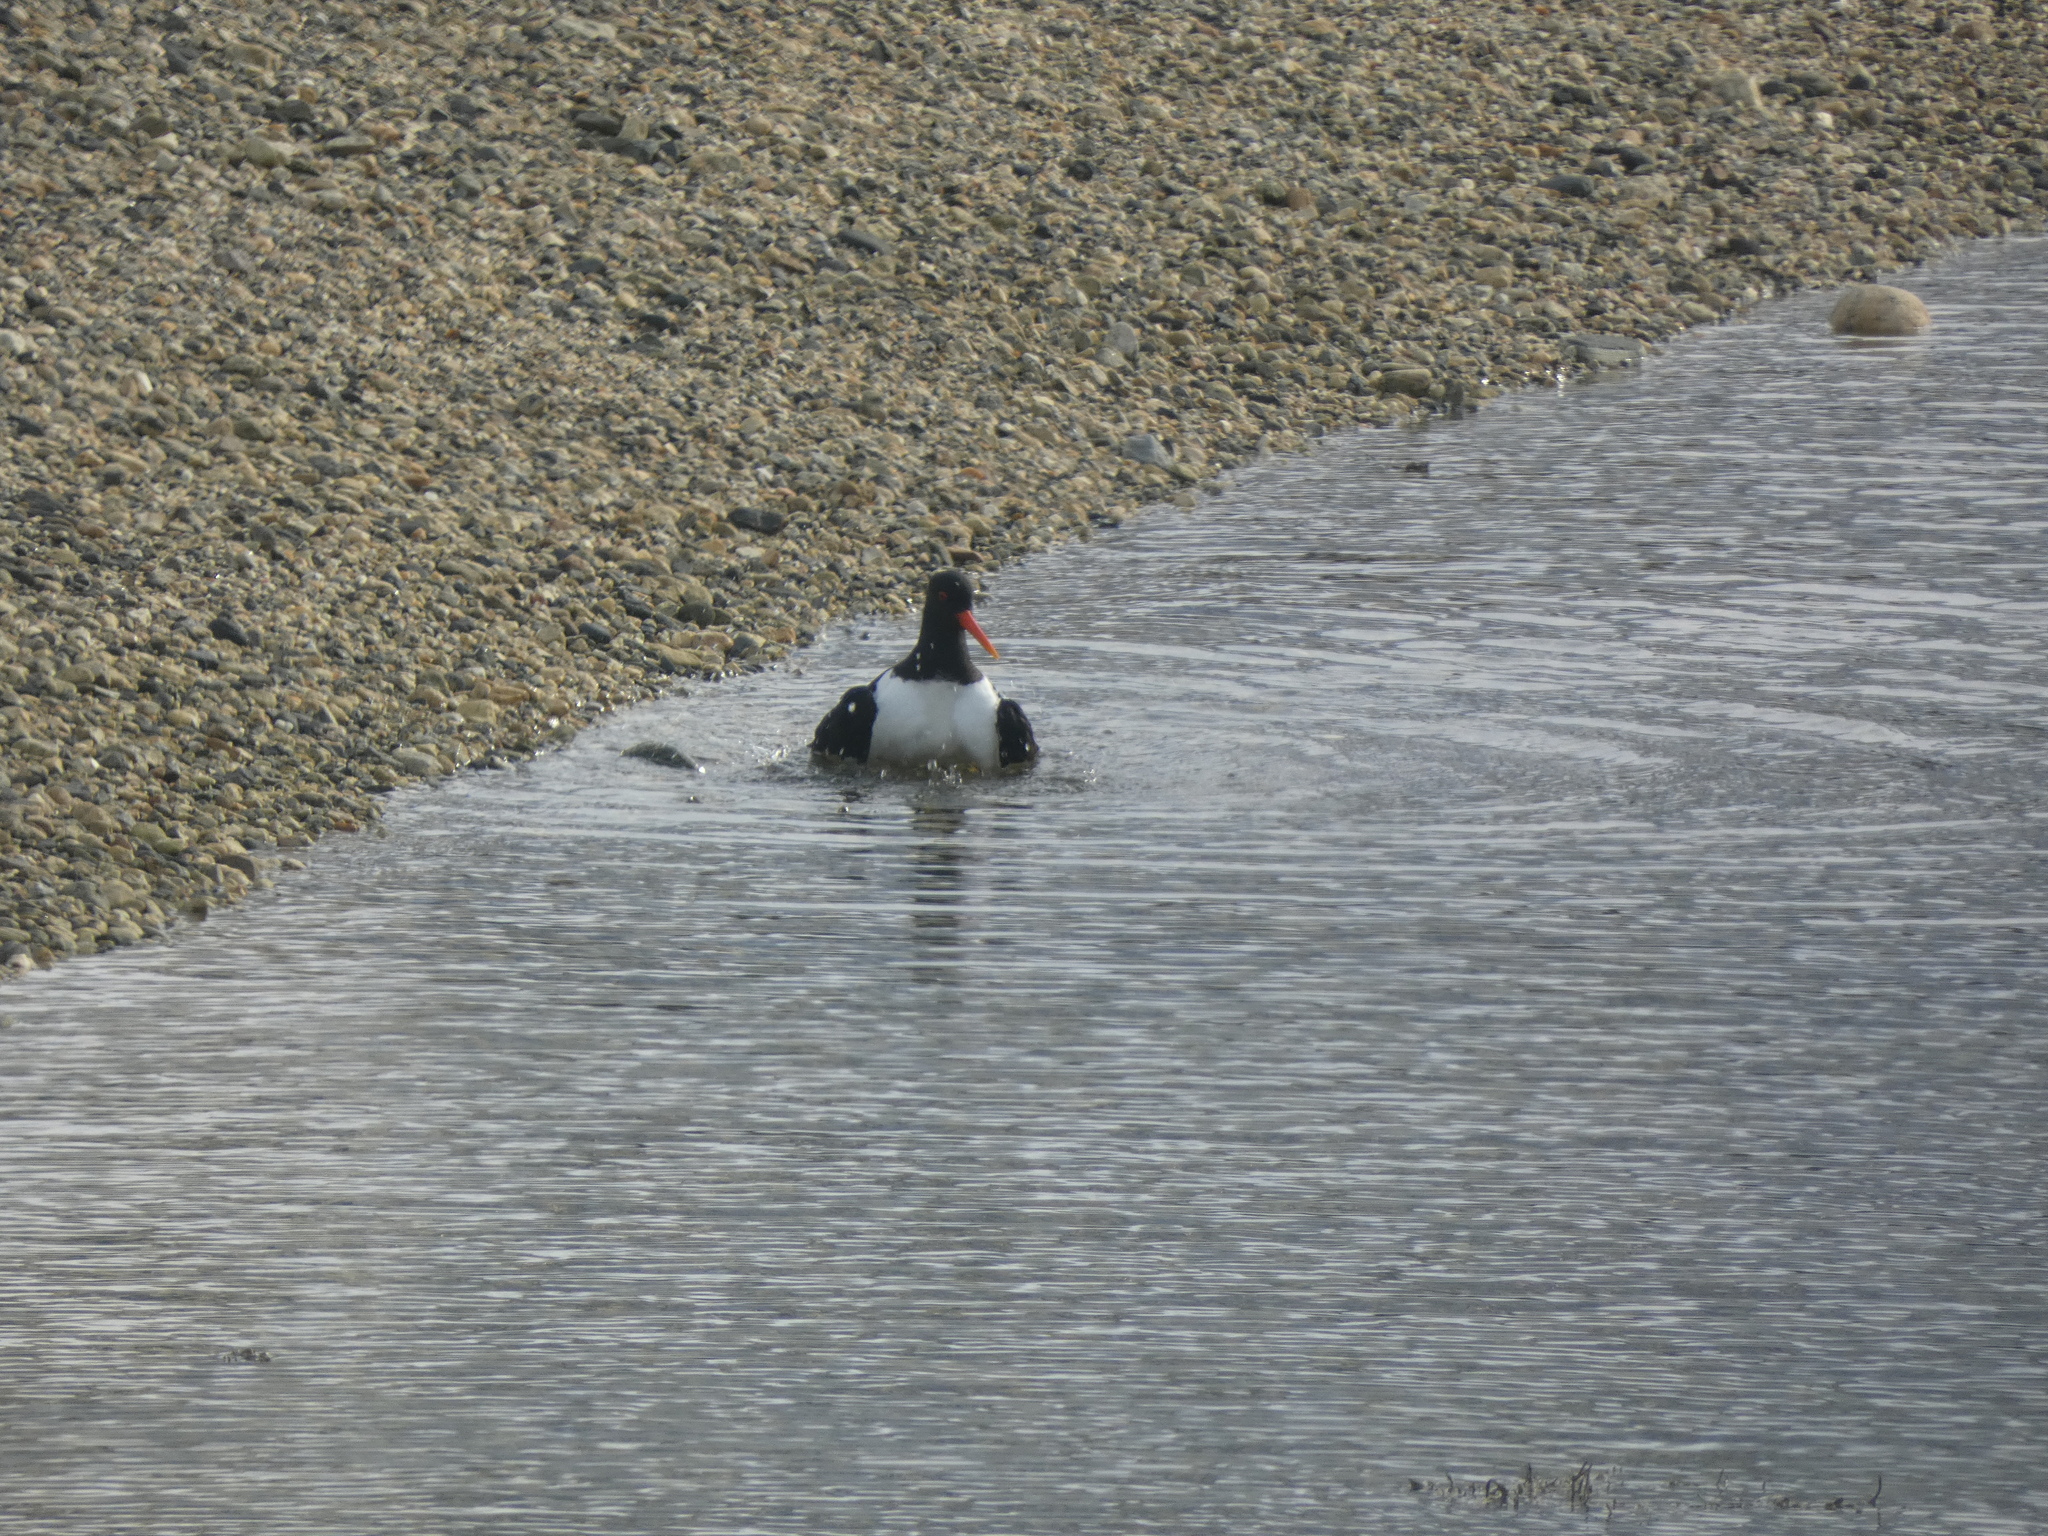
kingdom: Animalia
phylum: Chordata
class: Aves
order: Charadriiformes
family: Haematopodidae
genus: Haematopus
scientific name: Haematopus ostralegus
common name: Eurasian oystercatcher
